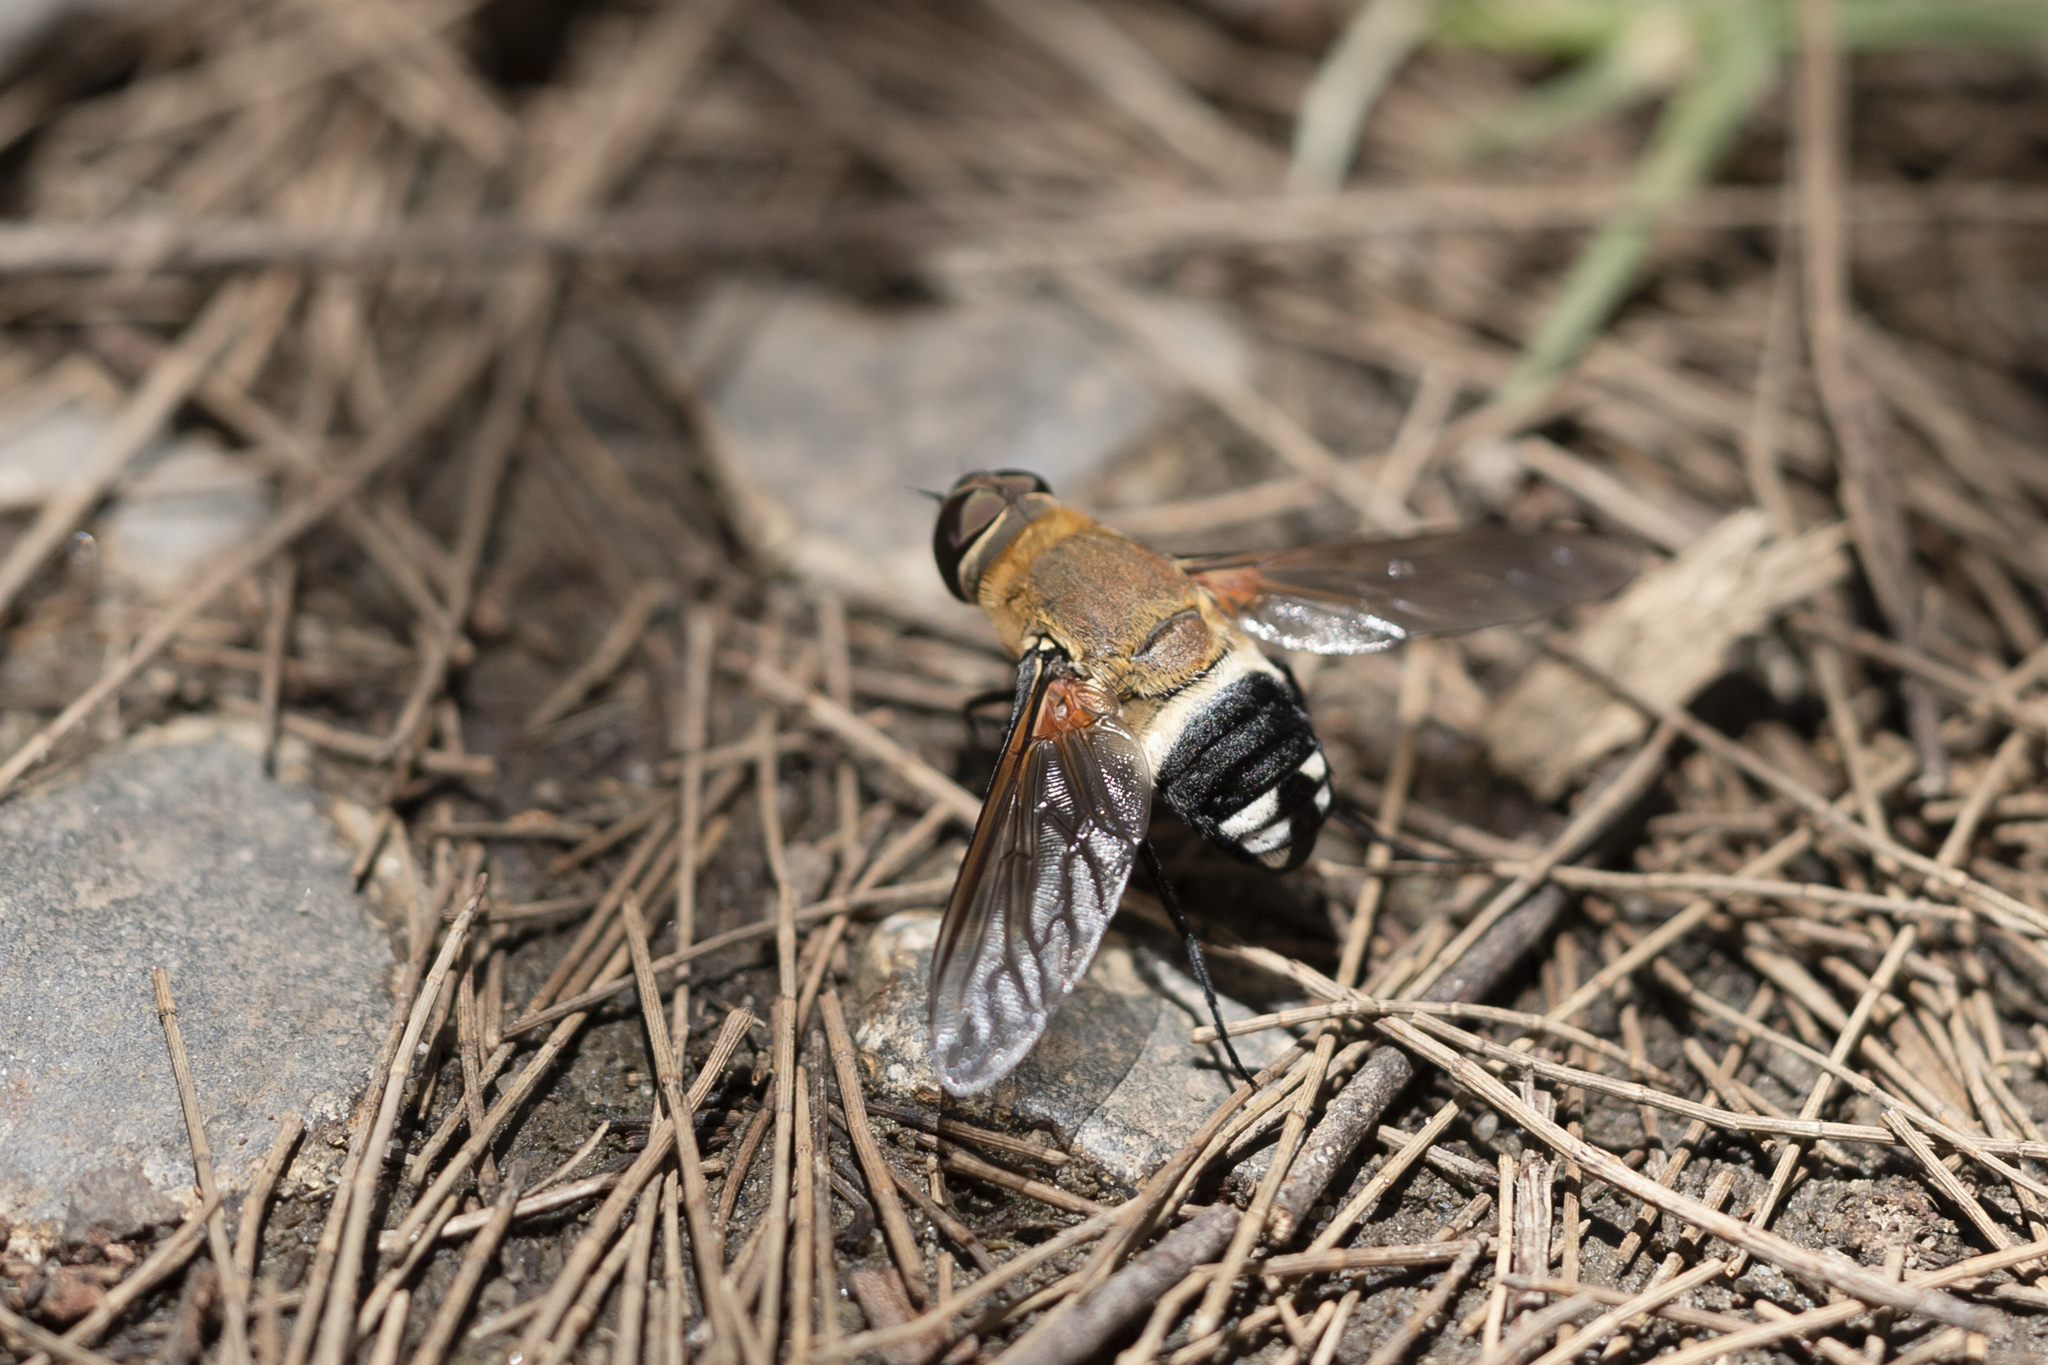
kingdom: Animalia
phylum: Arthropoda
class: Insecta
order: Diptera
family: Bombyliidae
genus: Ligyra
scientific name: Ligyra satyrus
